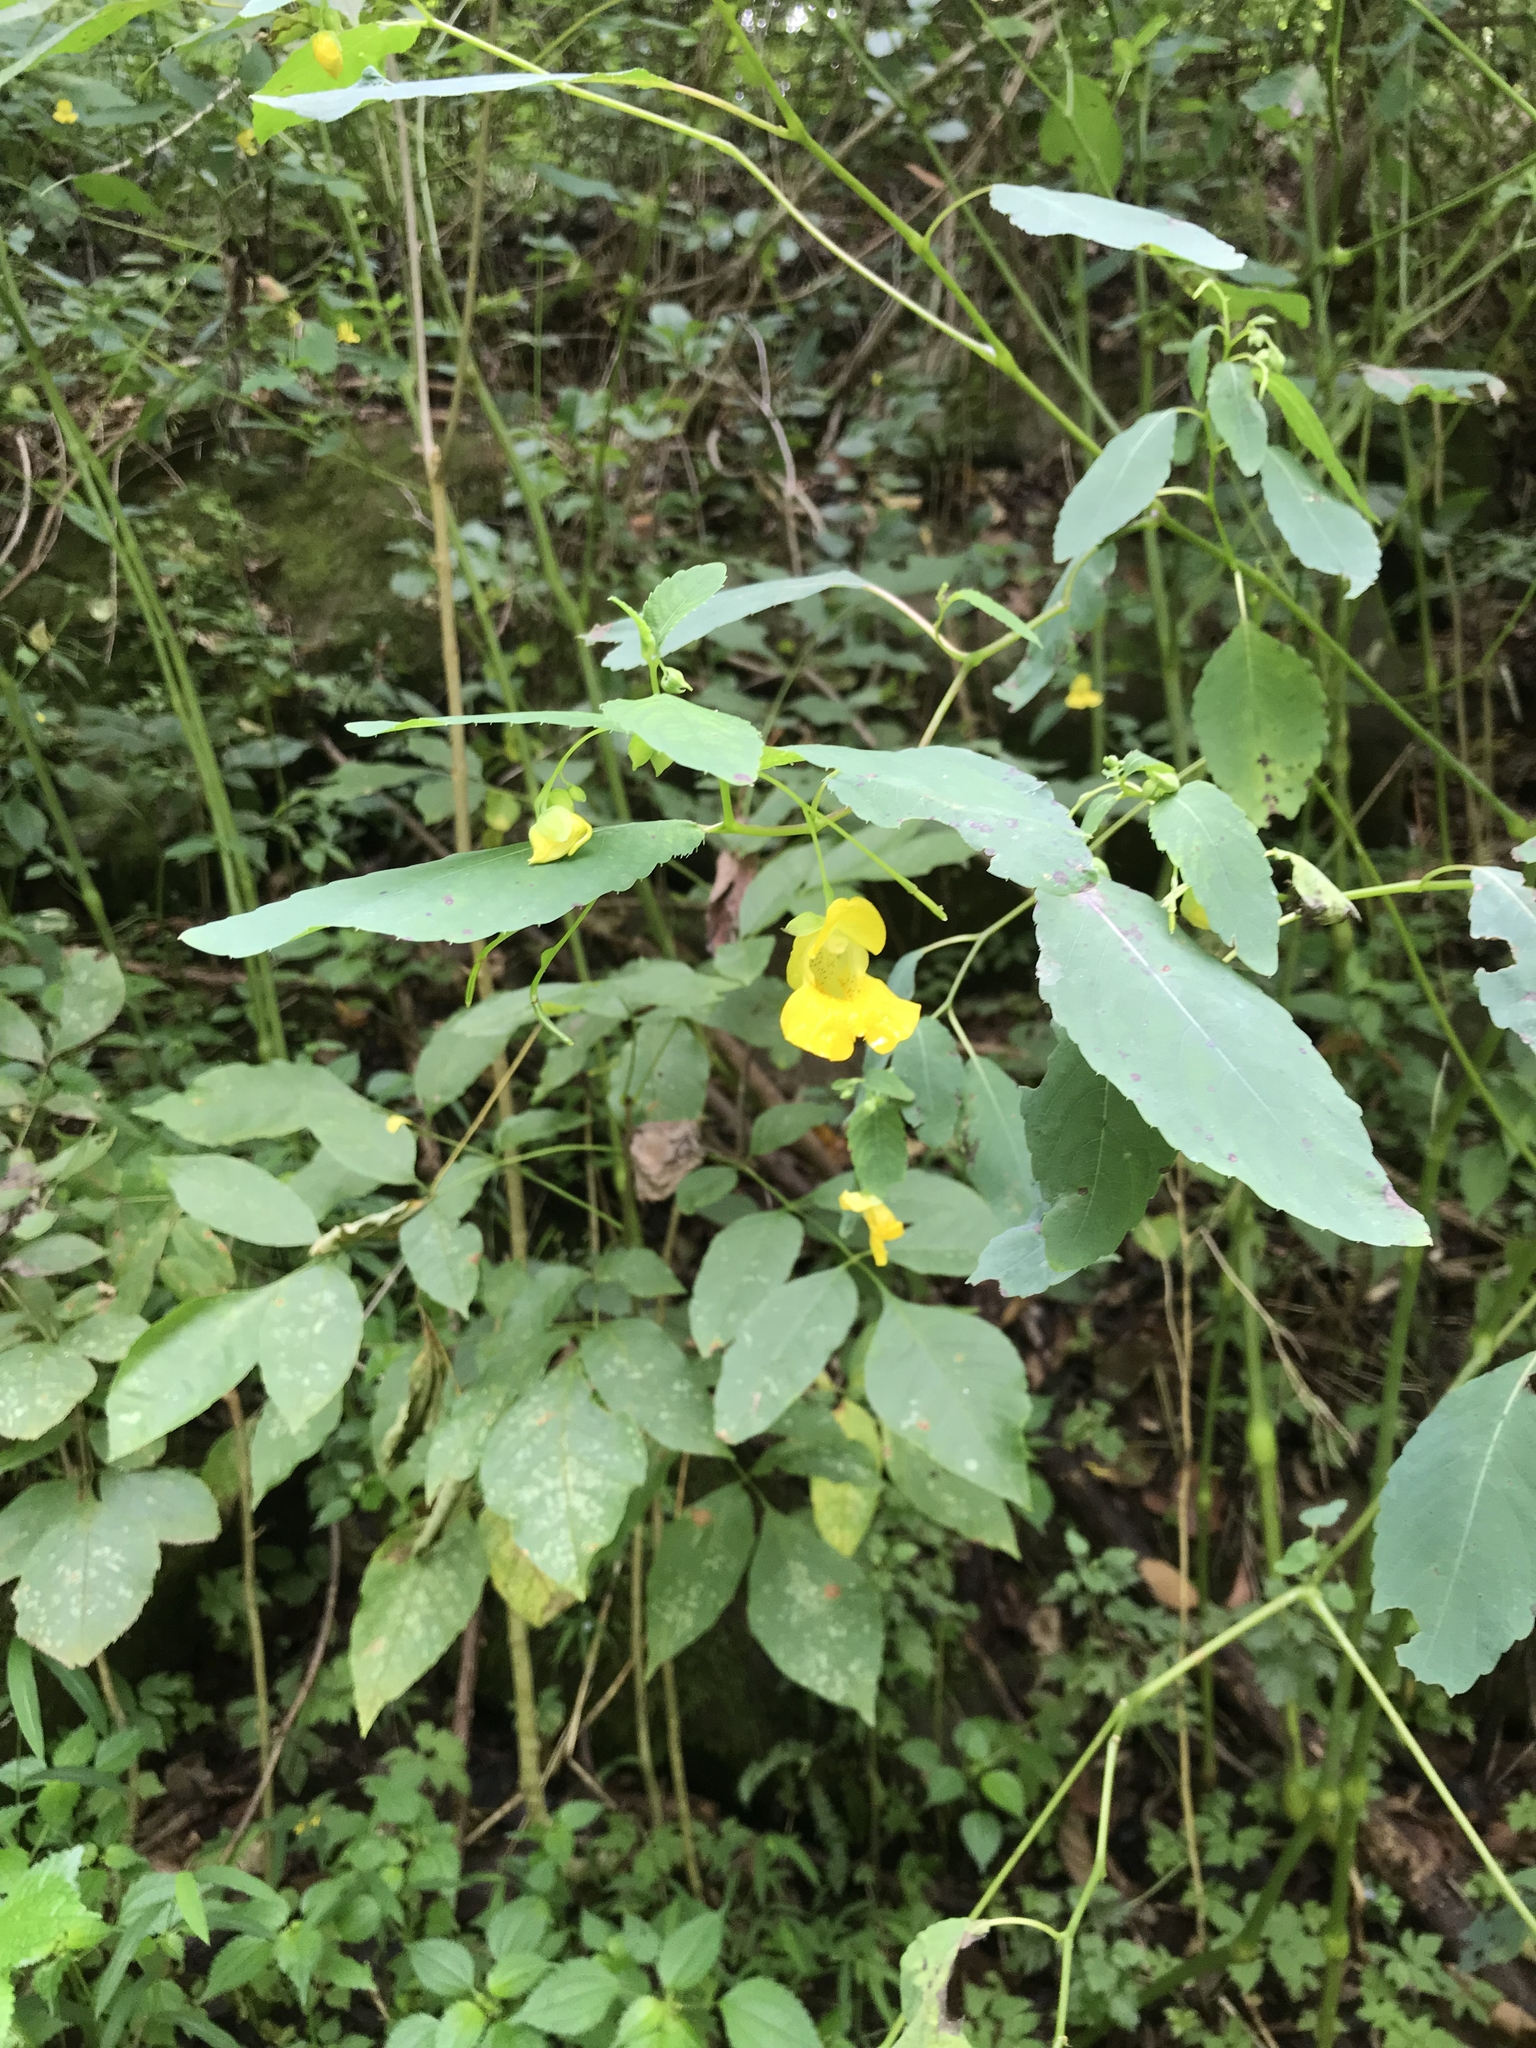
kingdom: Plantae
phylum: Tracheophyta
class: Magnoliopsida
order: Ericales
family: Balsaminaceae
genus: Impatiens
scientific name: Impatiens pallida
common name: Pale snapweed
